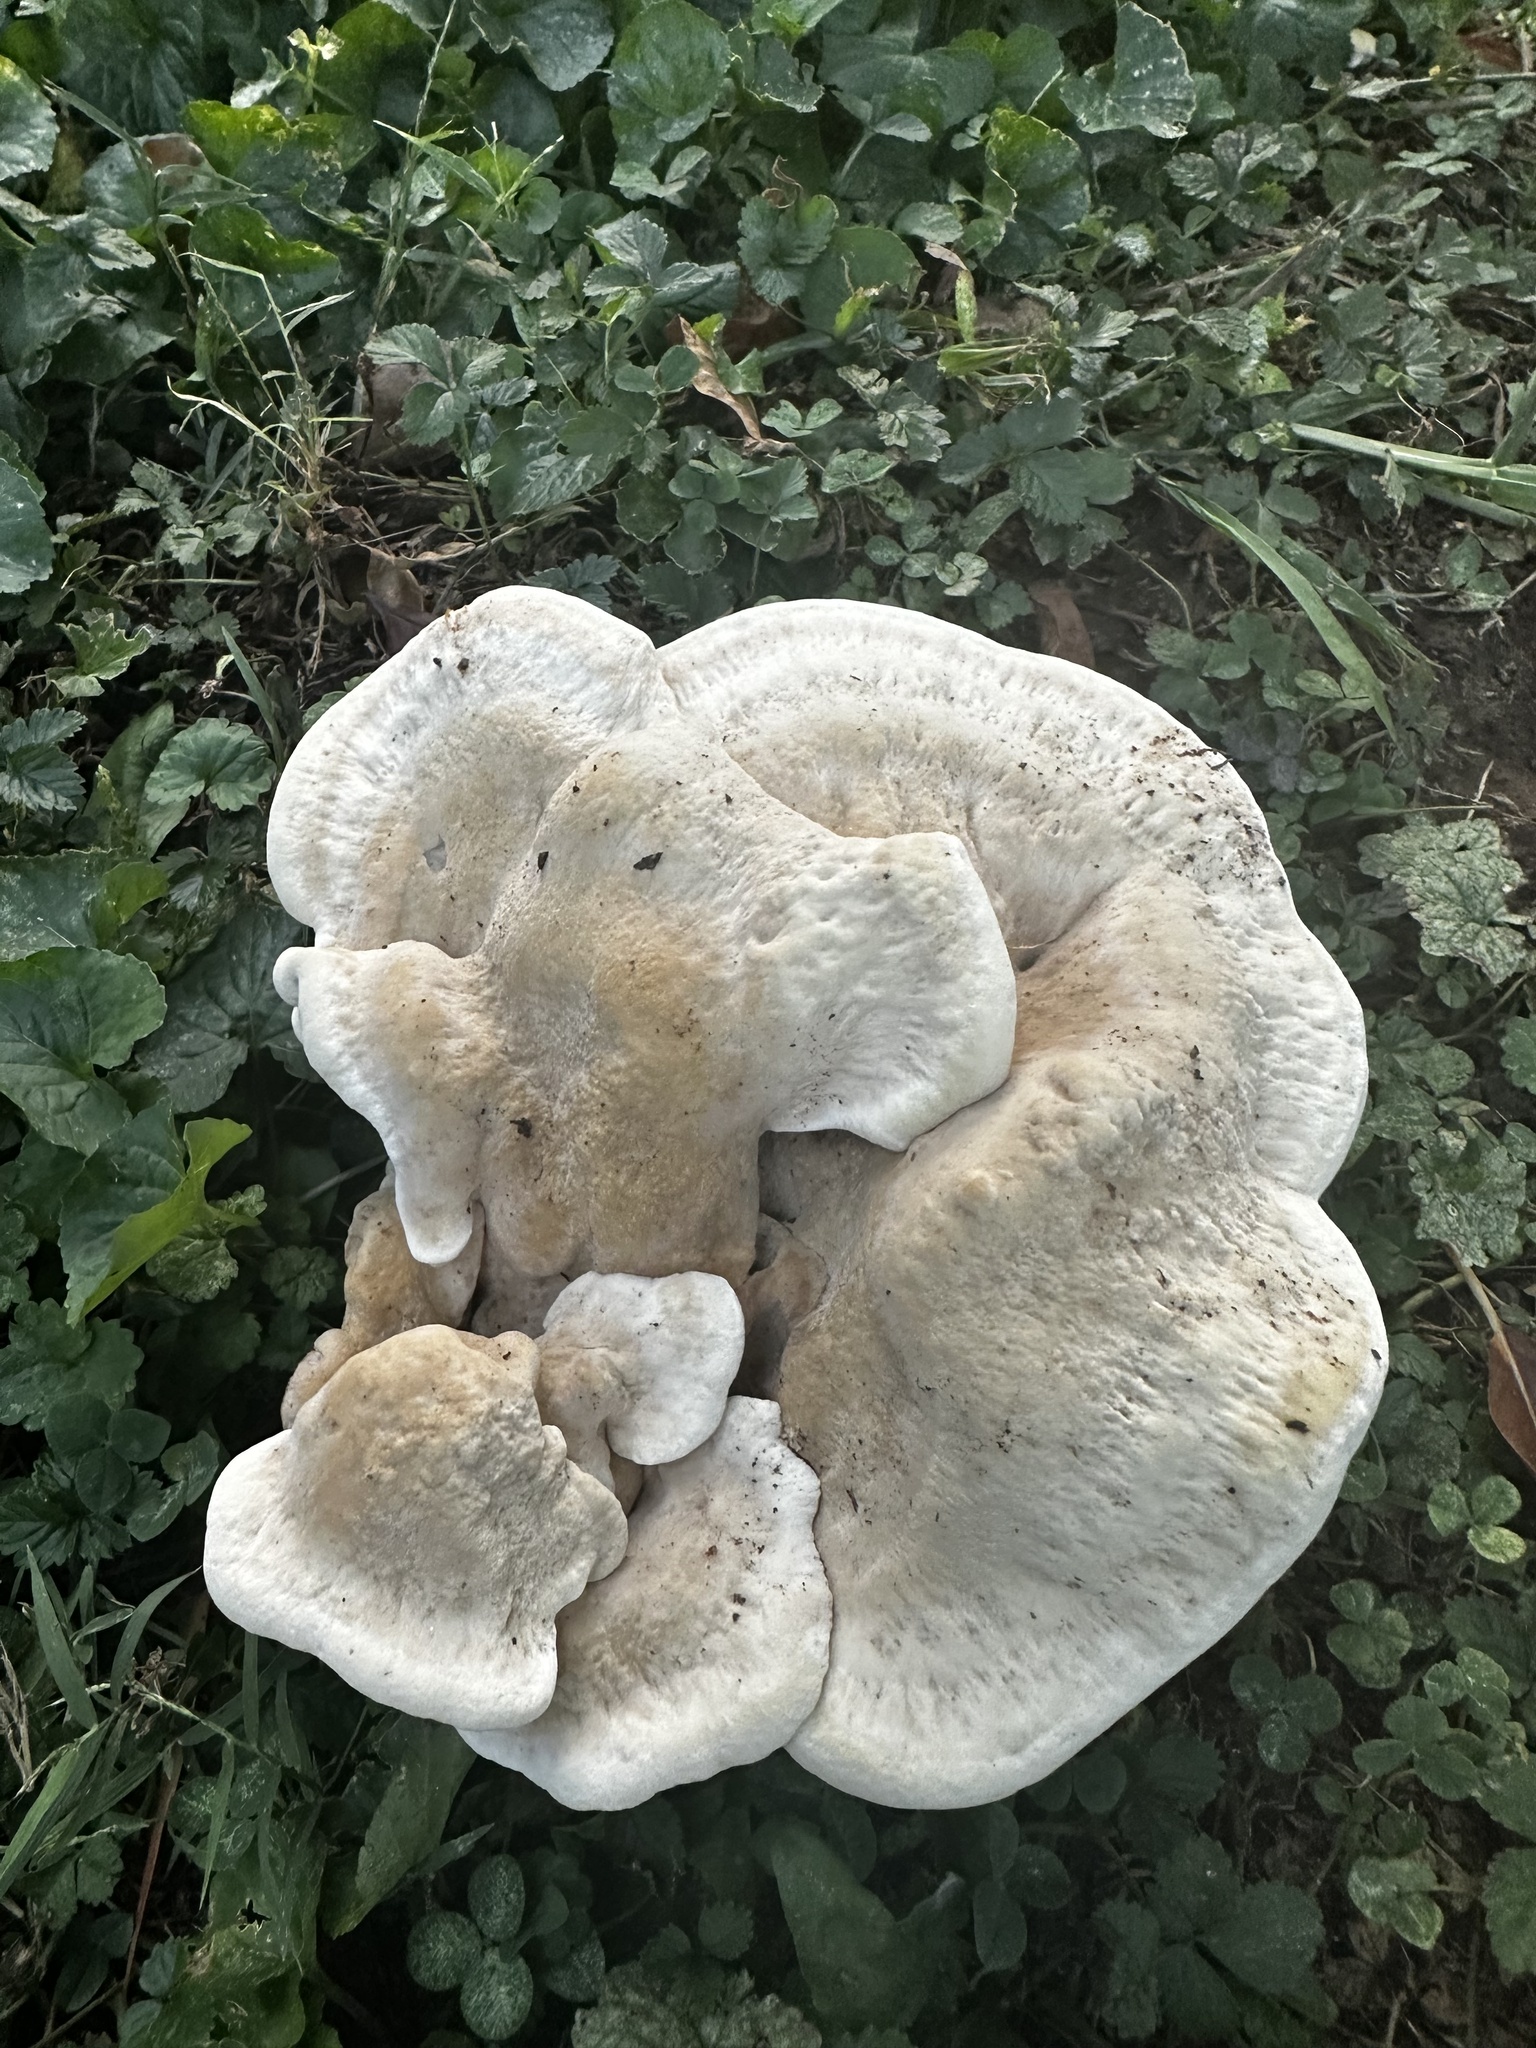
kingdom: Fungi
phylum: Basidiomycota
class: Agaricomycetes
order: Russulales
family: Bondarzewiaceae
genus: Bondarzewia
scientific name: Bondarzewia berkeleyi
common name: Berkeley's polypore
